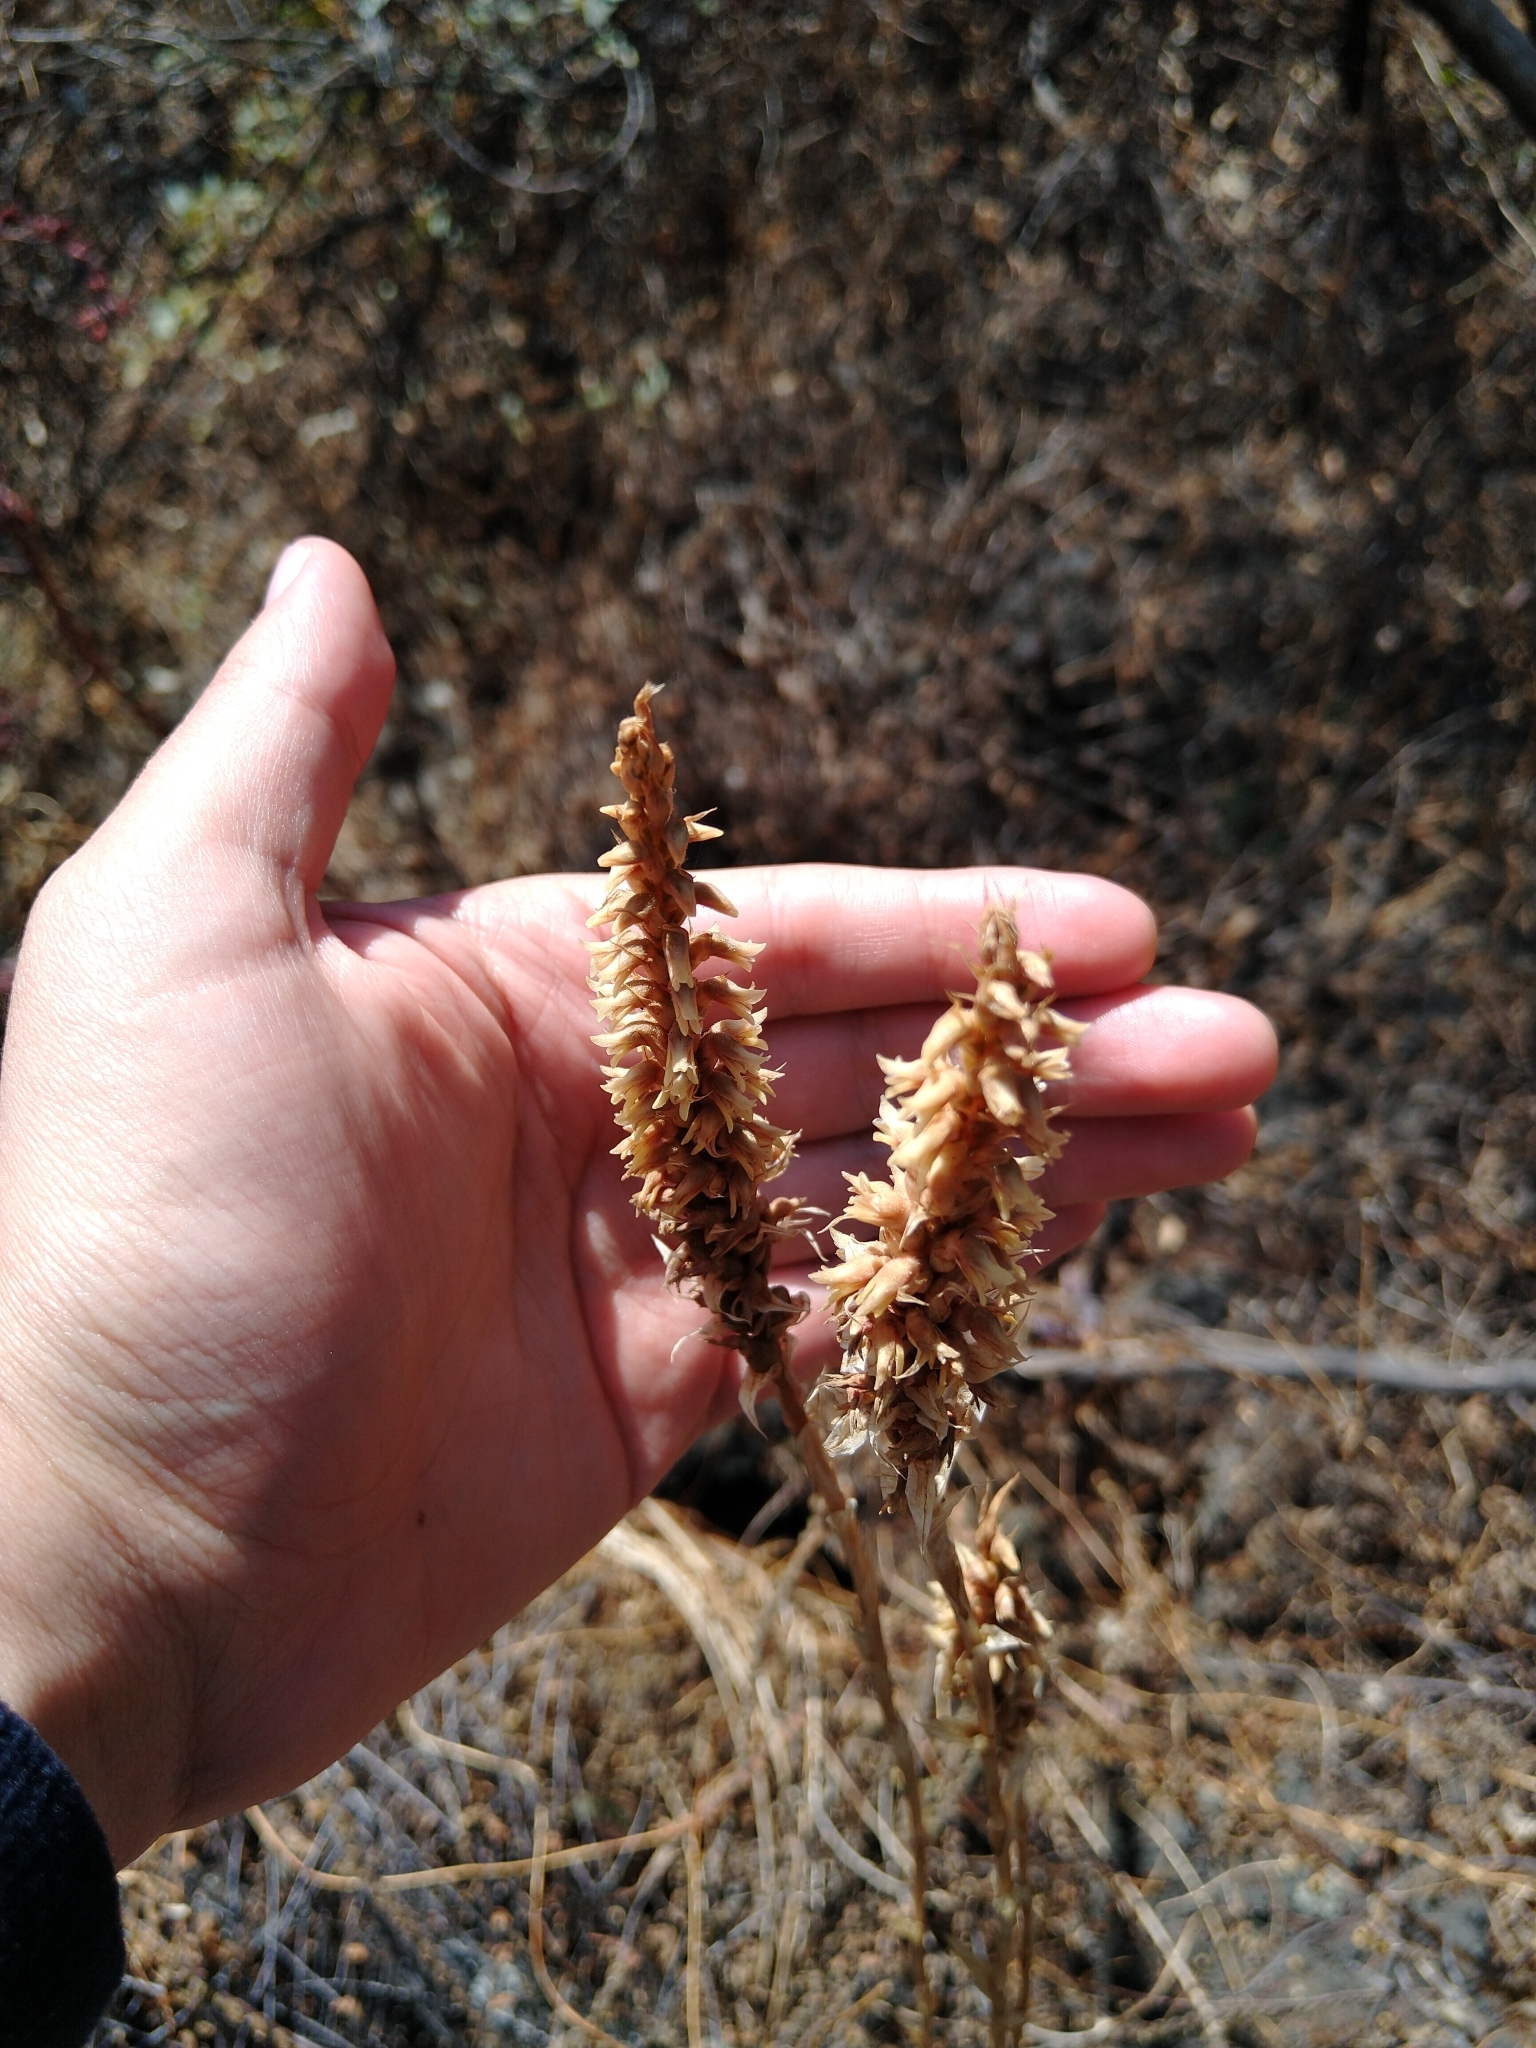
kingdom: Plantae
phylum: Tracheophyta
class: Liliopsida
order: Asparagales
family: Orchidaceae
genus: Aulosepalum
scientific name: Aulosepalum pyramidale
